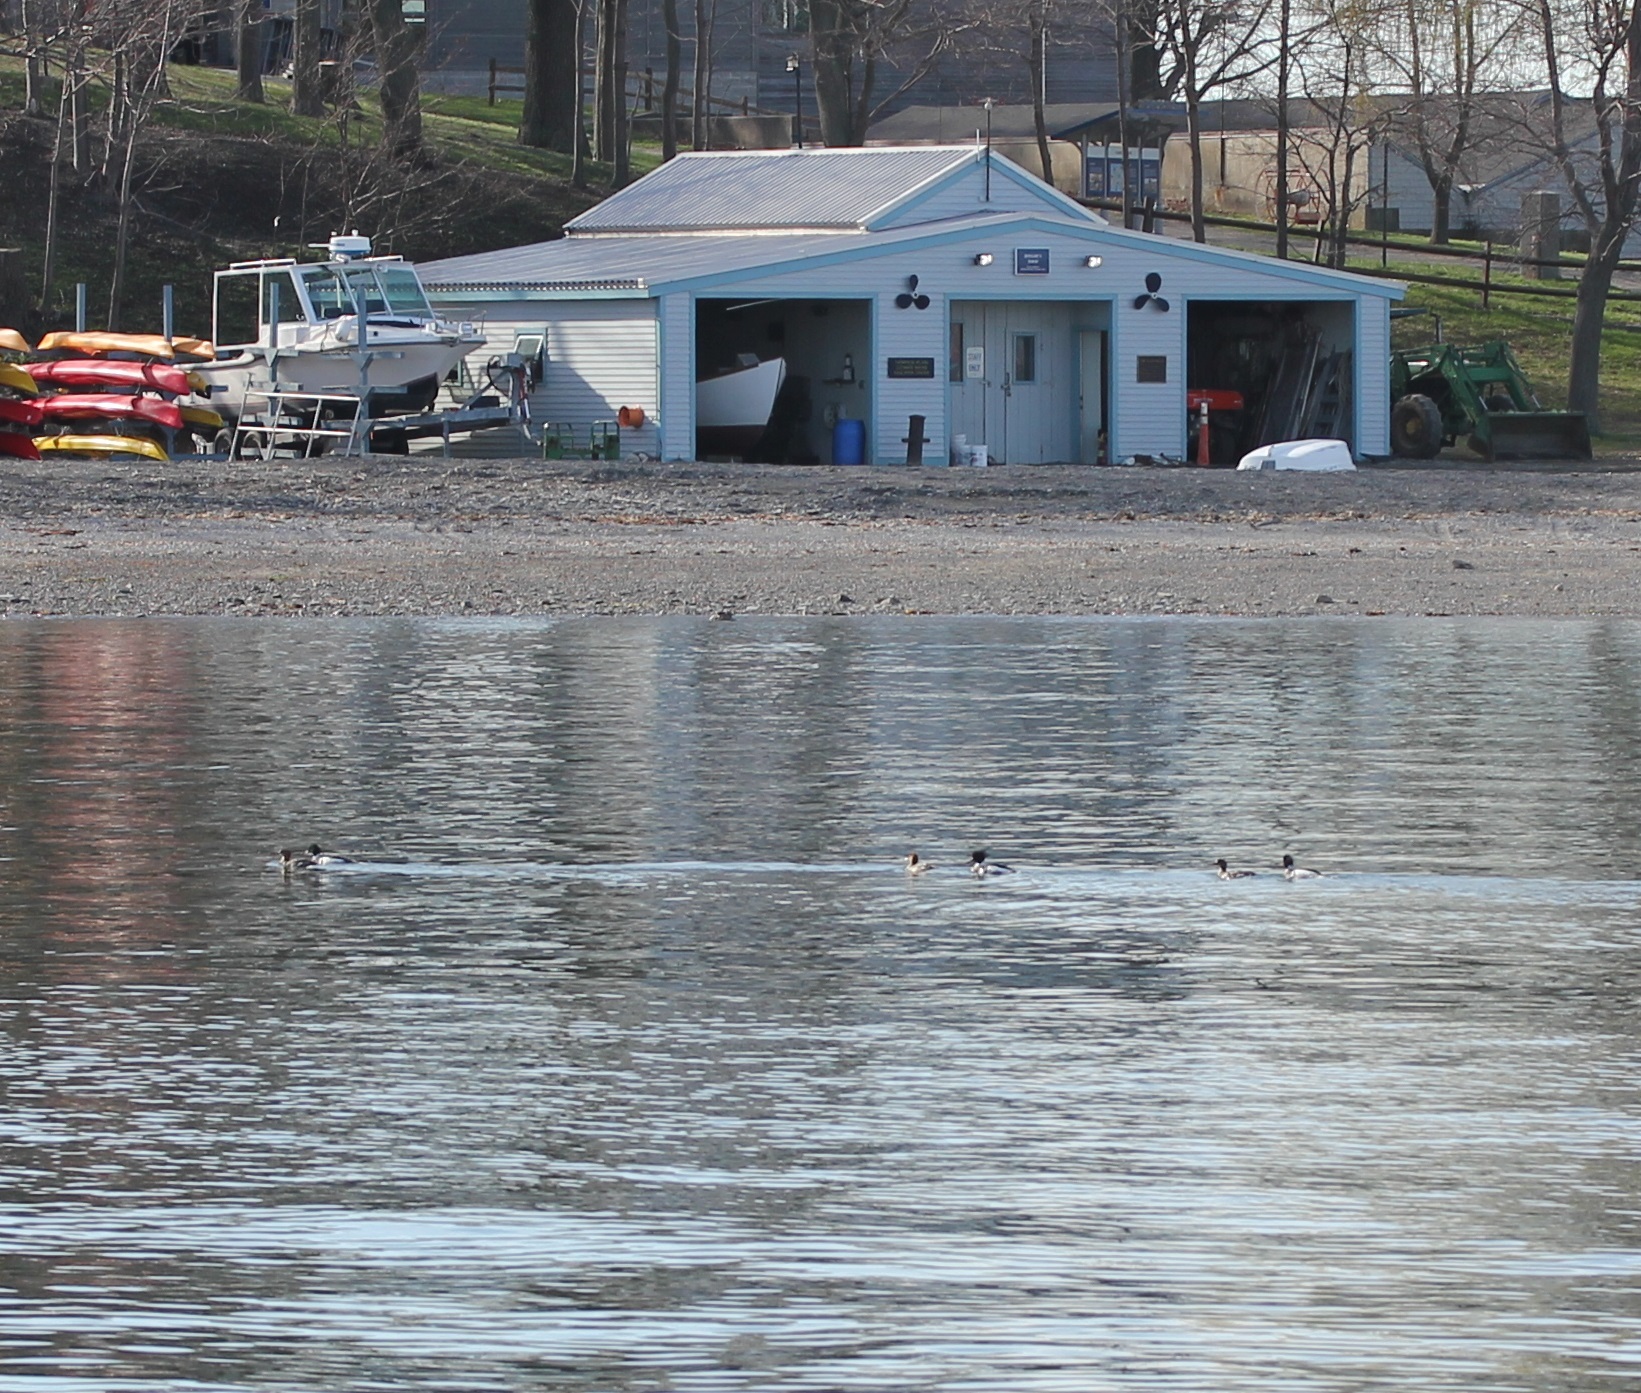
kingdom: Animalia
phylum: Chordata
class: Aves
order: Anseriformes
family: Anatidae
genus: Mergus
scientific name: Mergus serrator
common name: Red-breasted merganser
